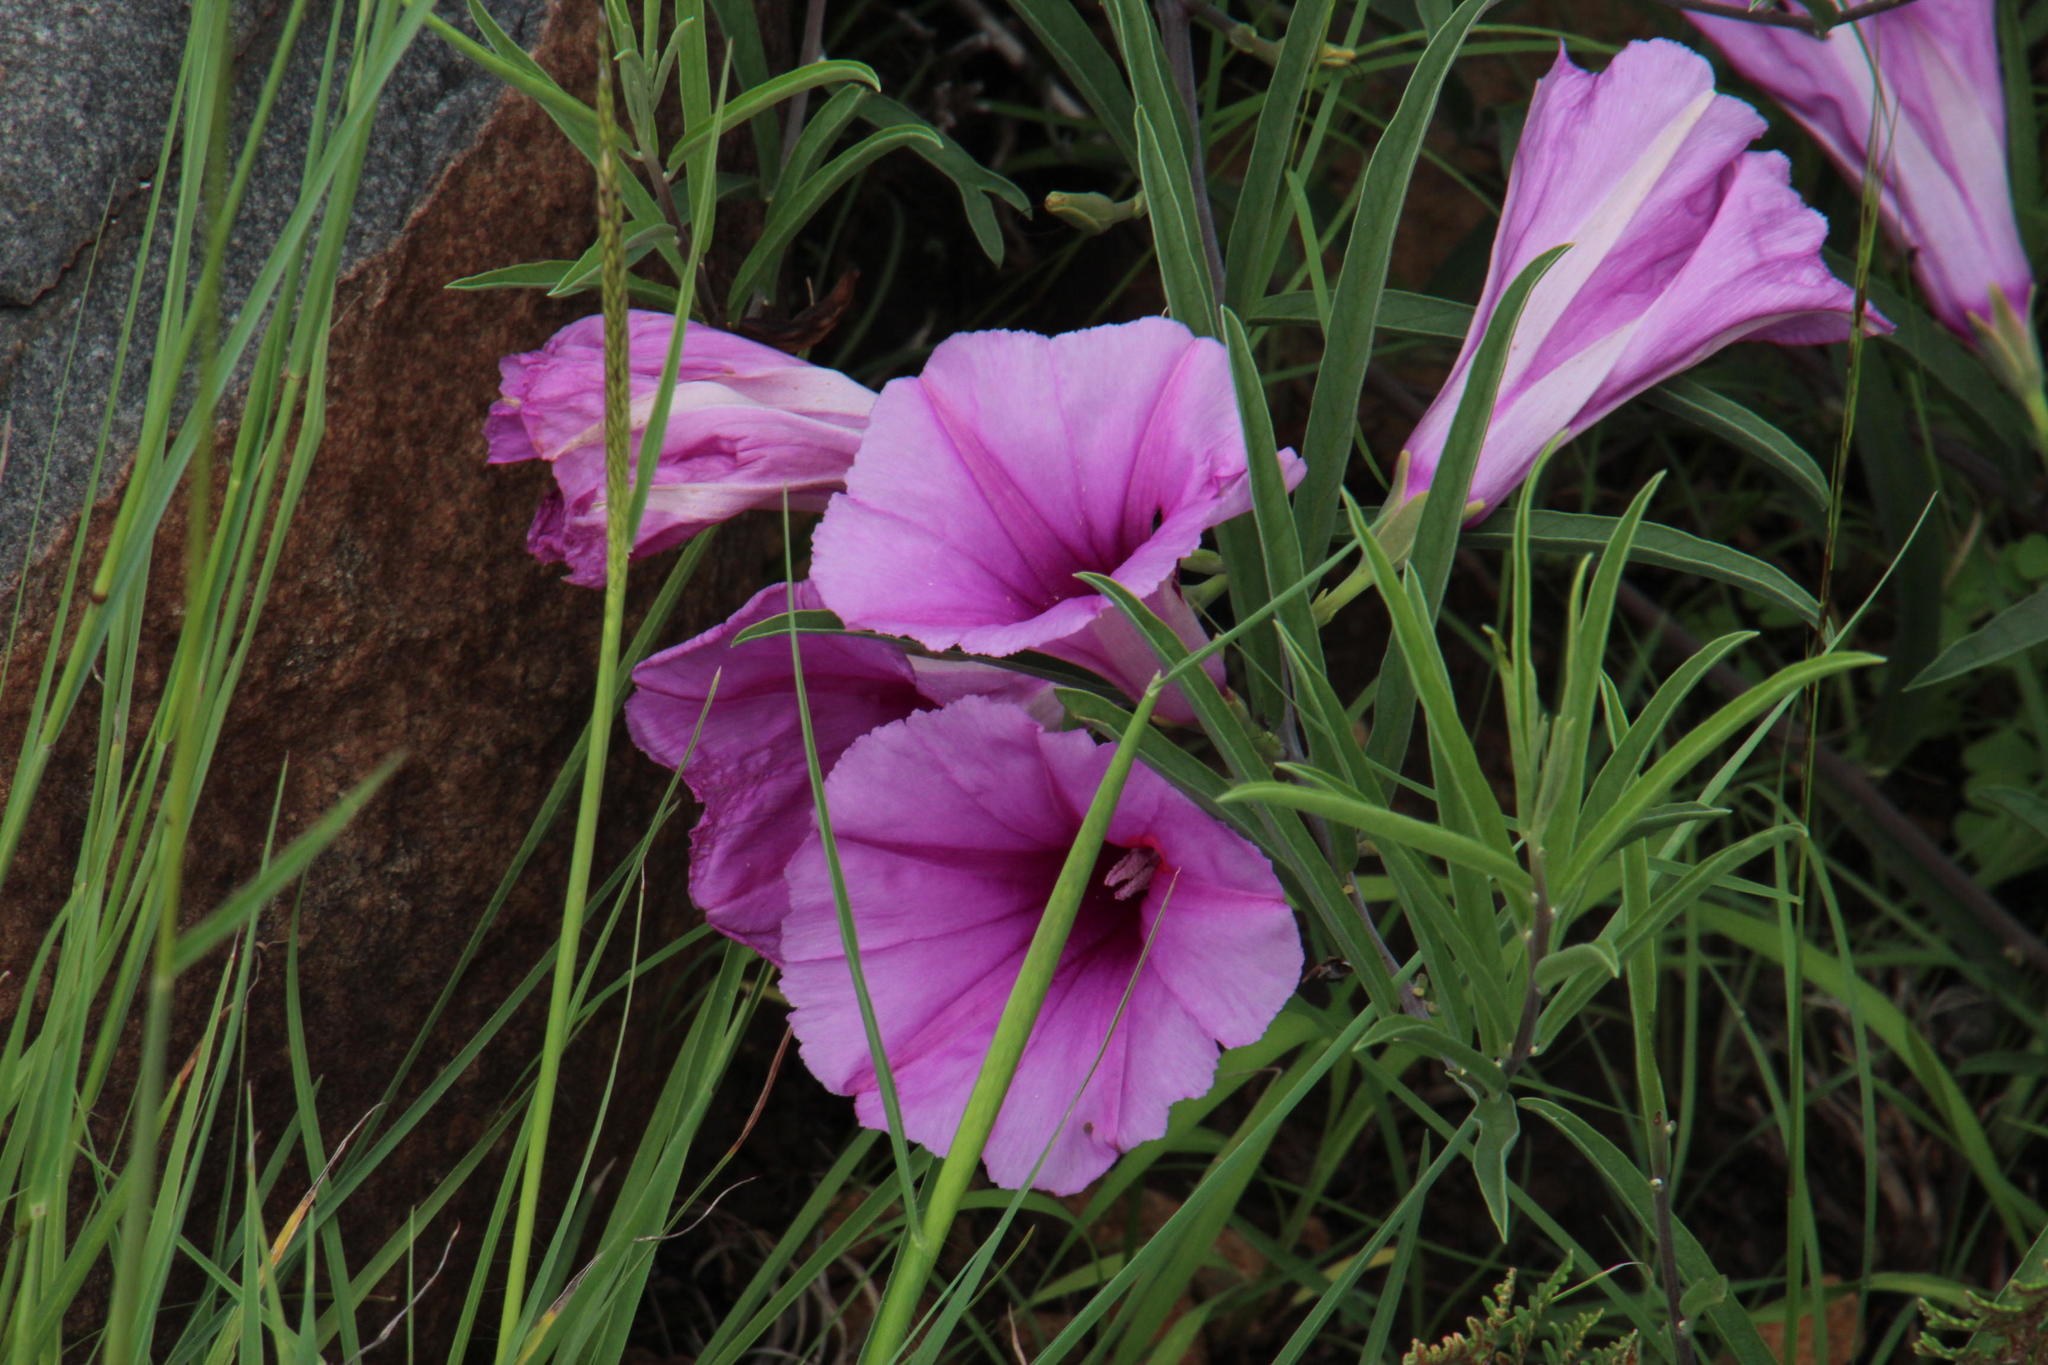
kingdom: Plantae
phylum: Tracheophyta
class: Magnoliopsida
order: Solanales
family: Convolvulaceae
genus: Ipomoea
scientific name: Ipomoea oenotheroides
